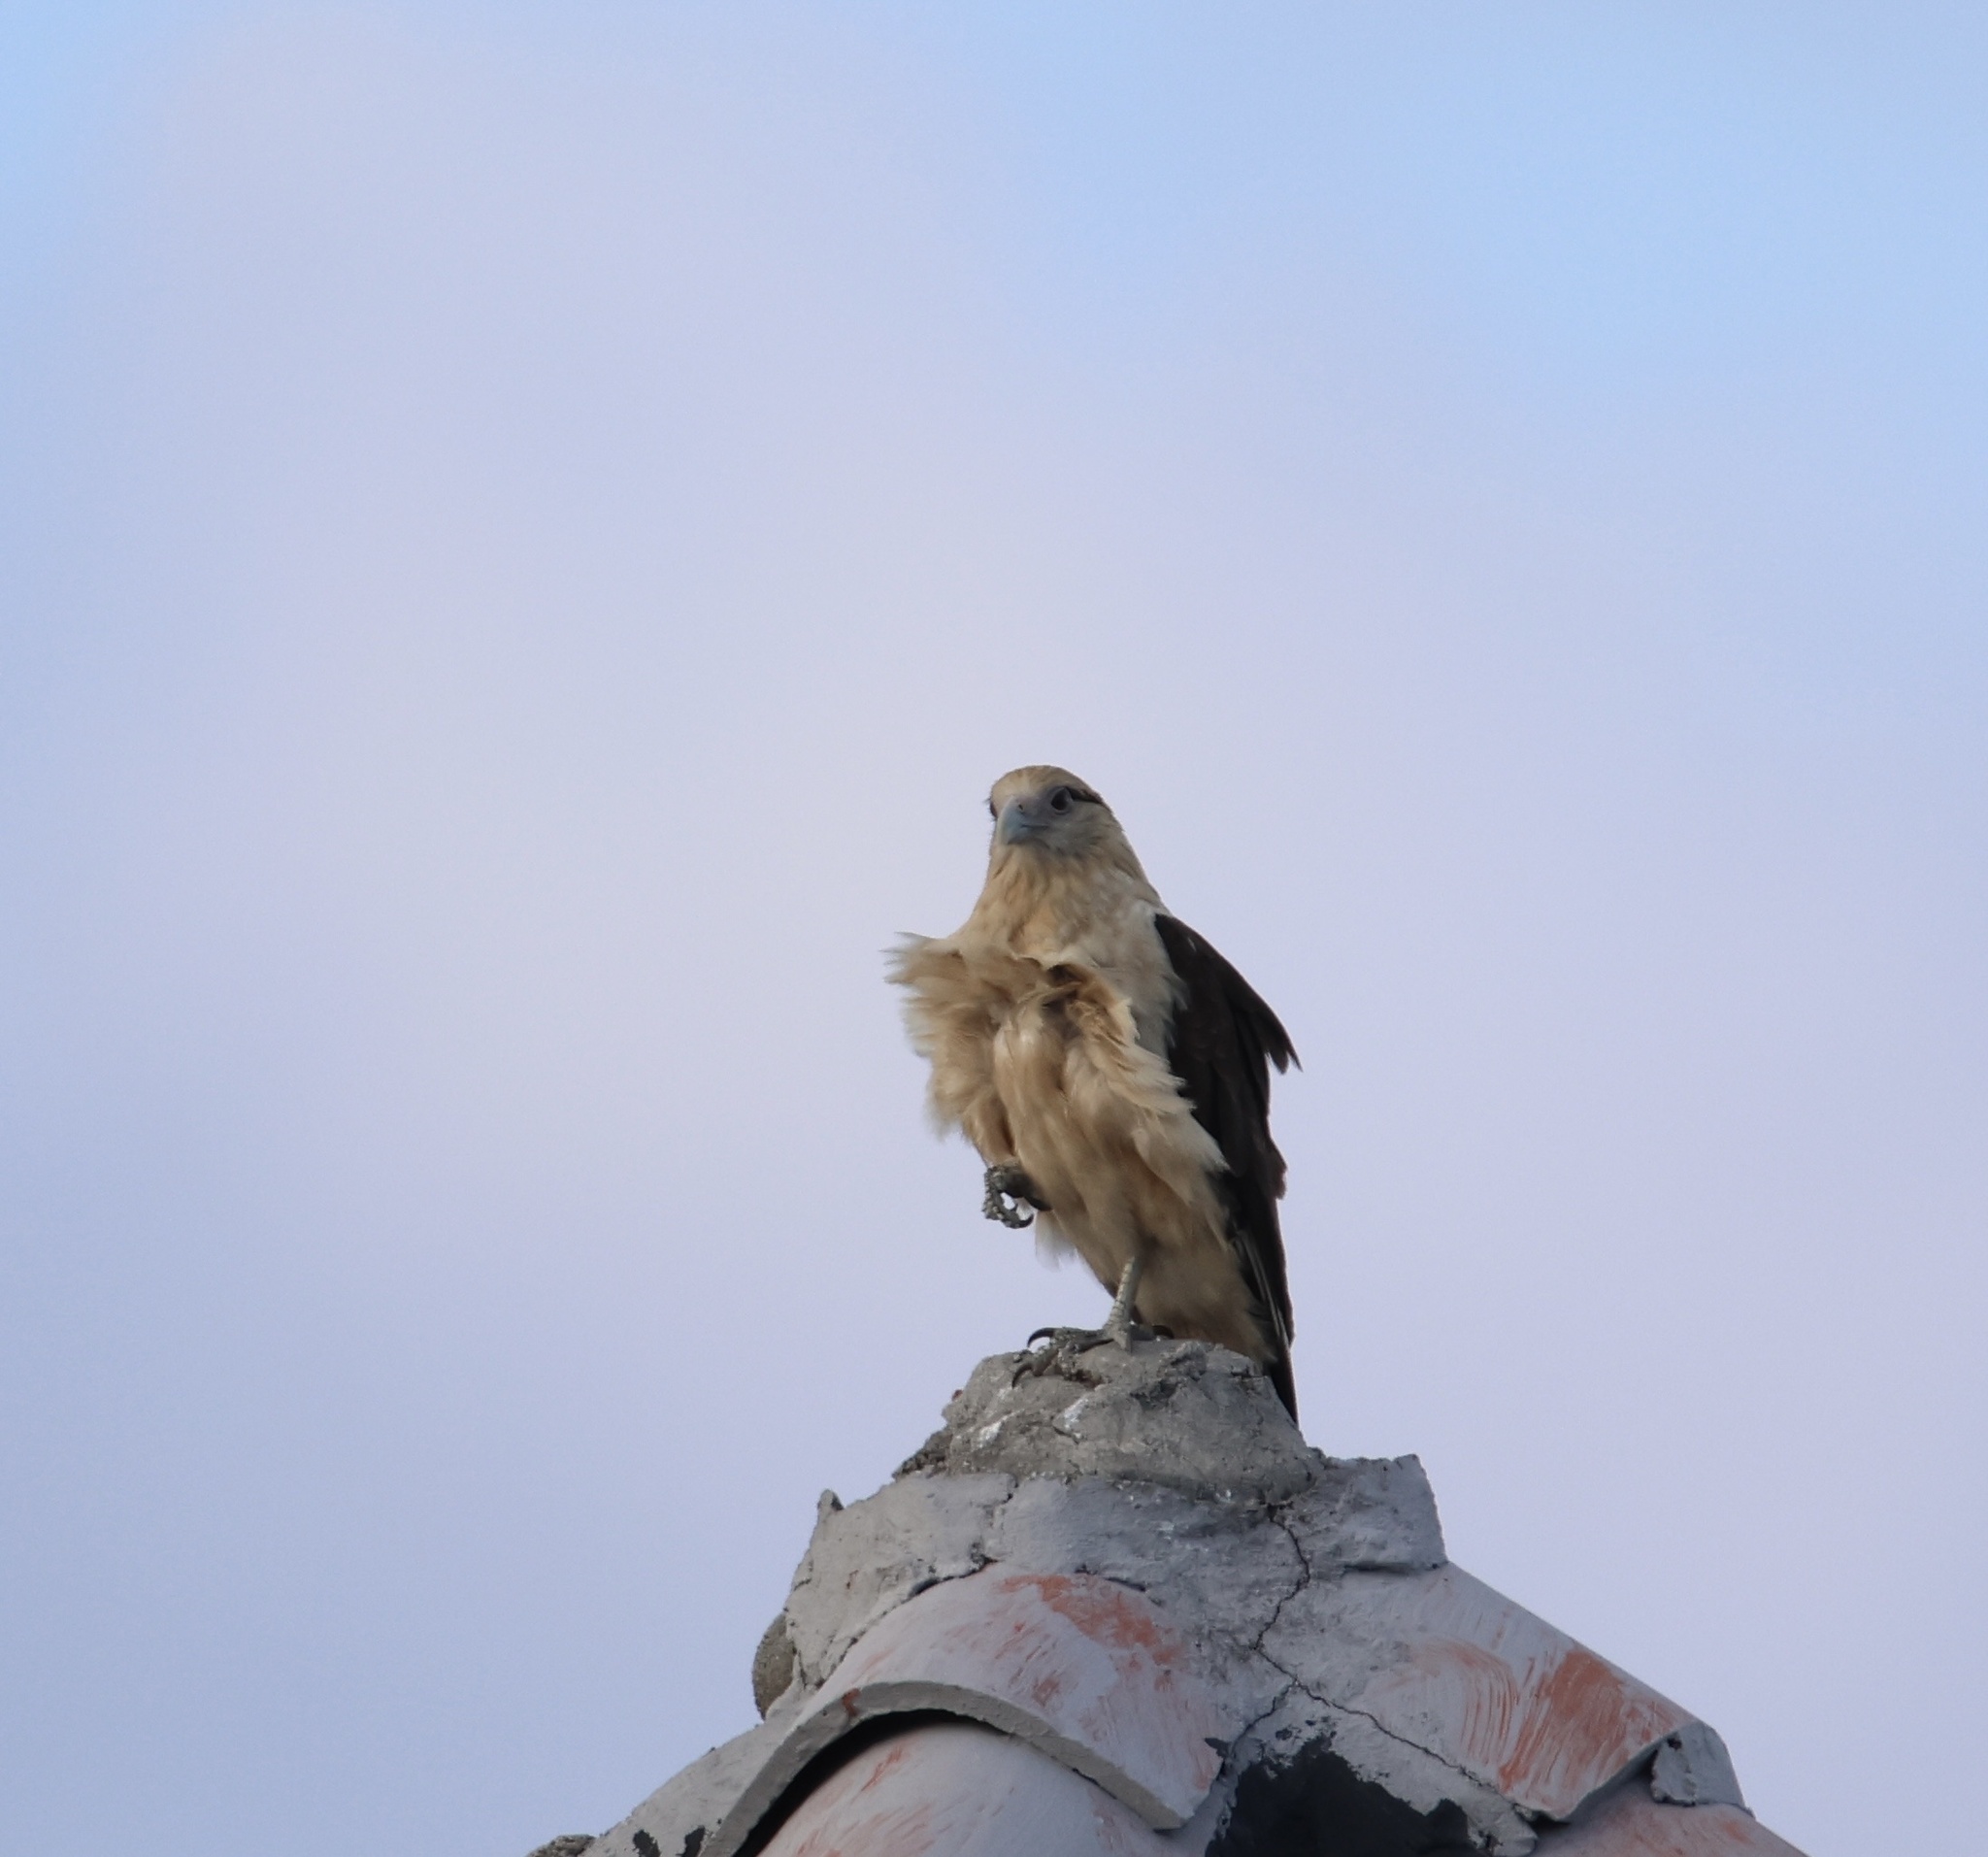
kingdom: Animalia
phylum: Chordata
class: Aves
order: Falconiformes
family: Falconidae
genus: Daptrius
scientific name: Daptrius
